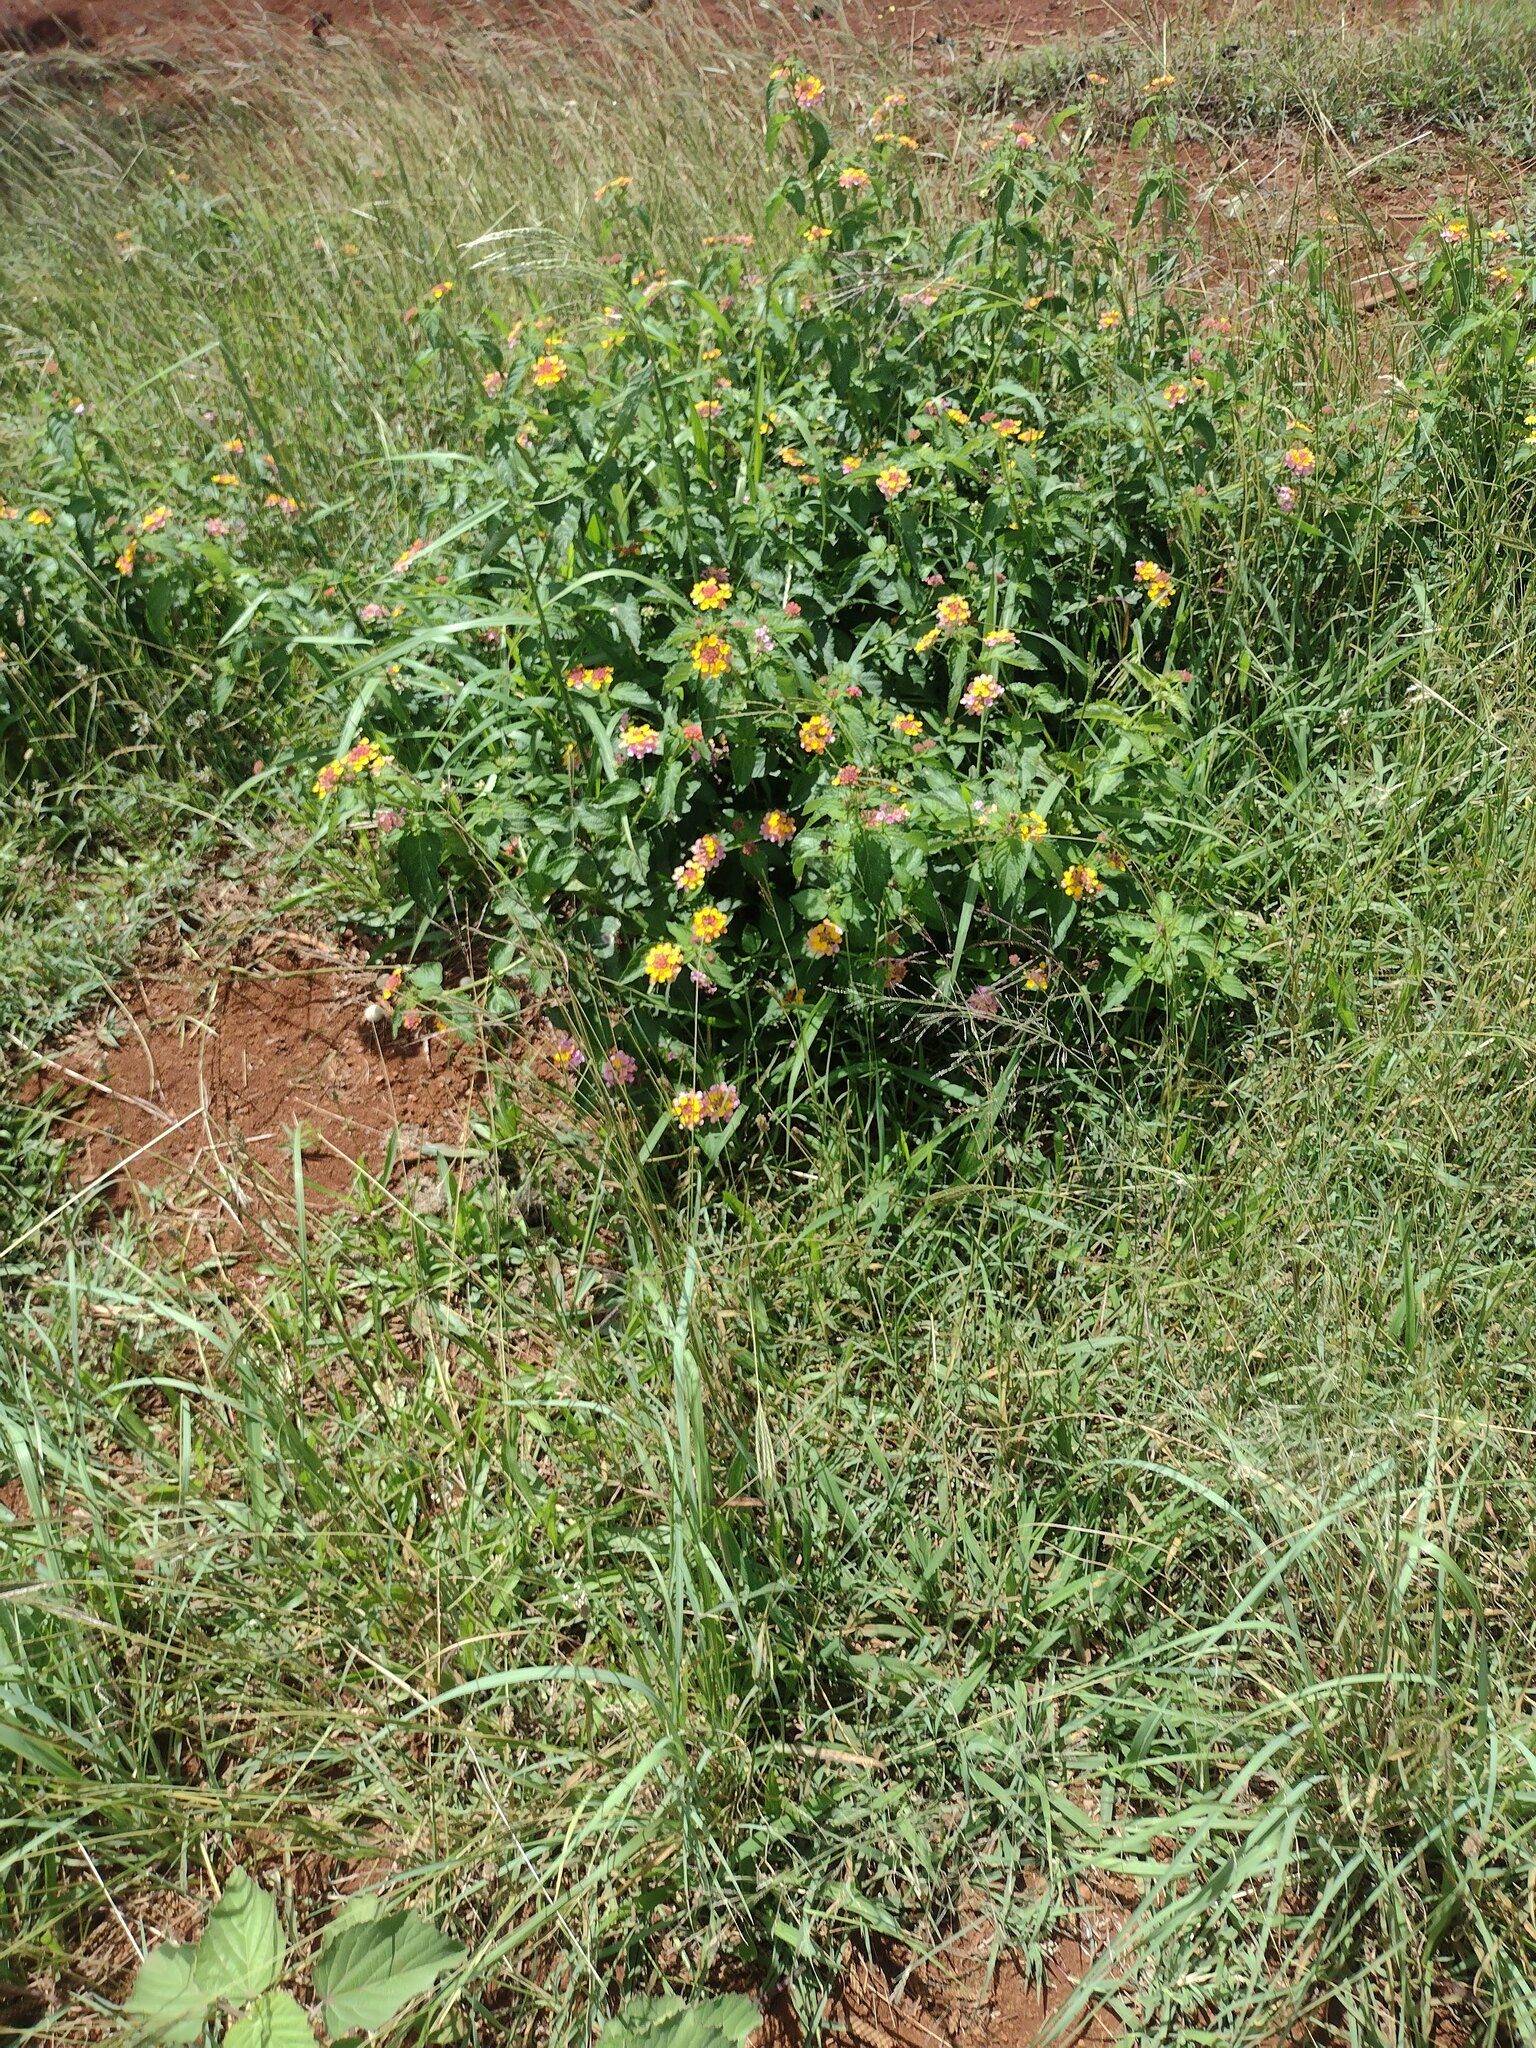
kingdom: Plantae
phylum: Tracheophyta
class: Magnoliopsida
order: Lamiales
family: Verbenaceae
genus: Lantana
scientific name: Lantana camara
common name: Lantana
